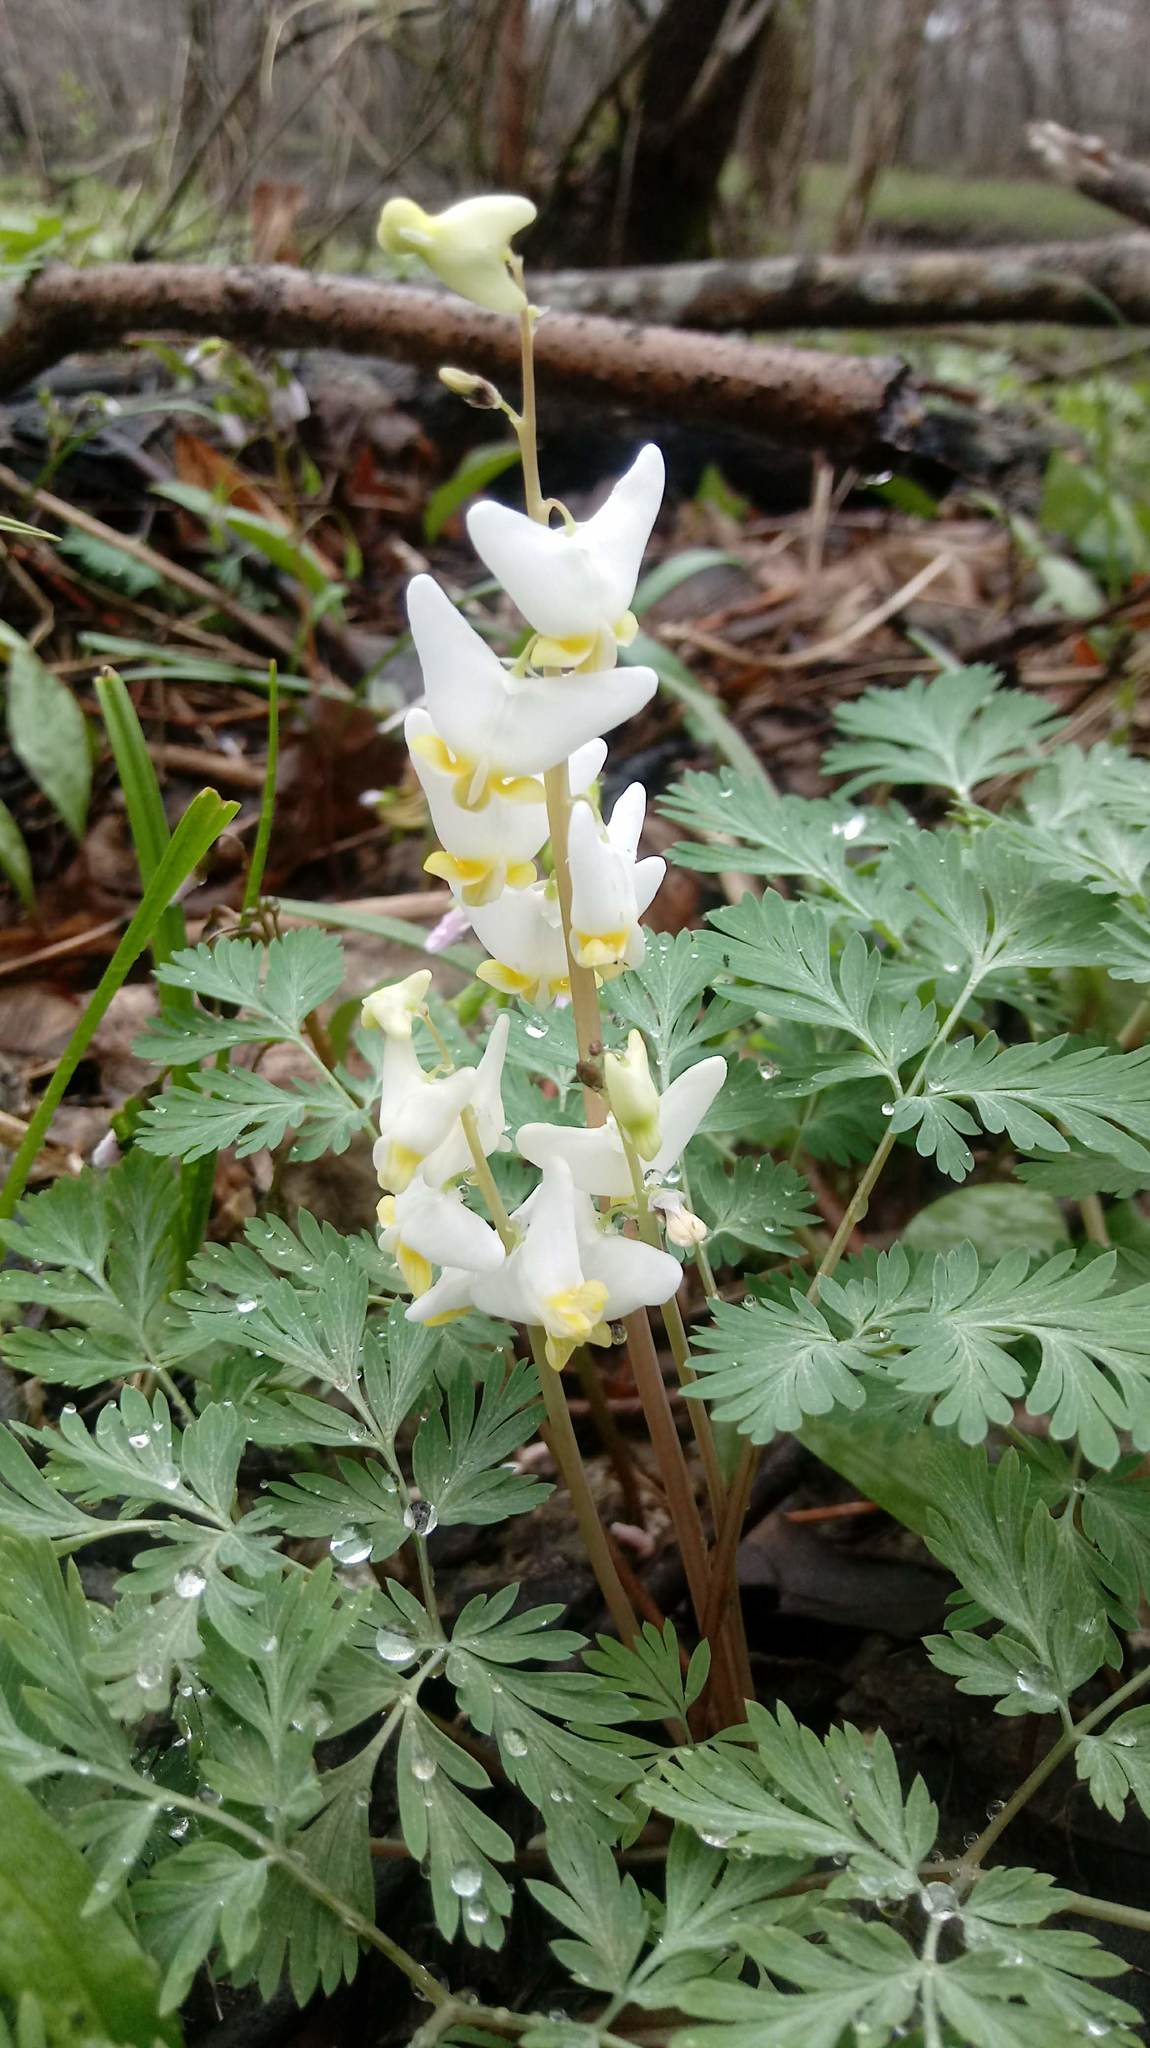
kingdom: Plantae
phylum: Tracheophyta
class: Magnoliopsida
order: Ranunculales
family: Papaveraceae
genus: Dicentra
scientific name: Dicentra cucullaria
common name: Dutchman's breeches
